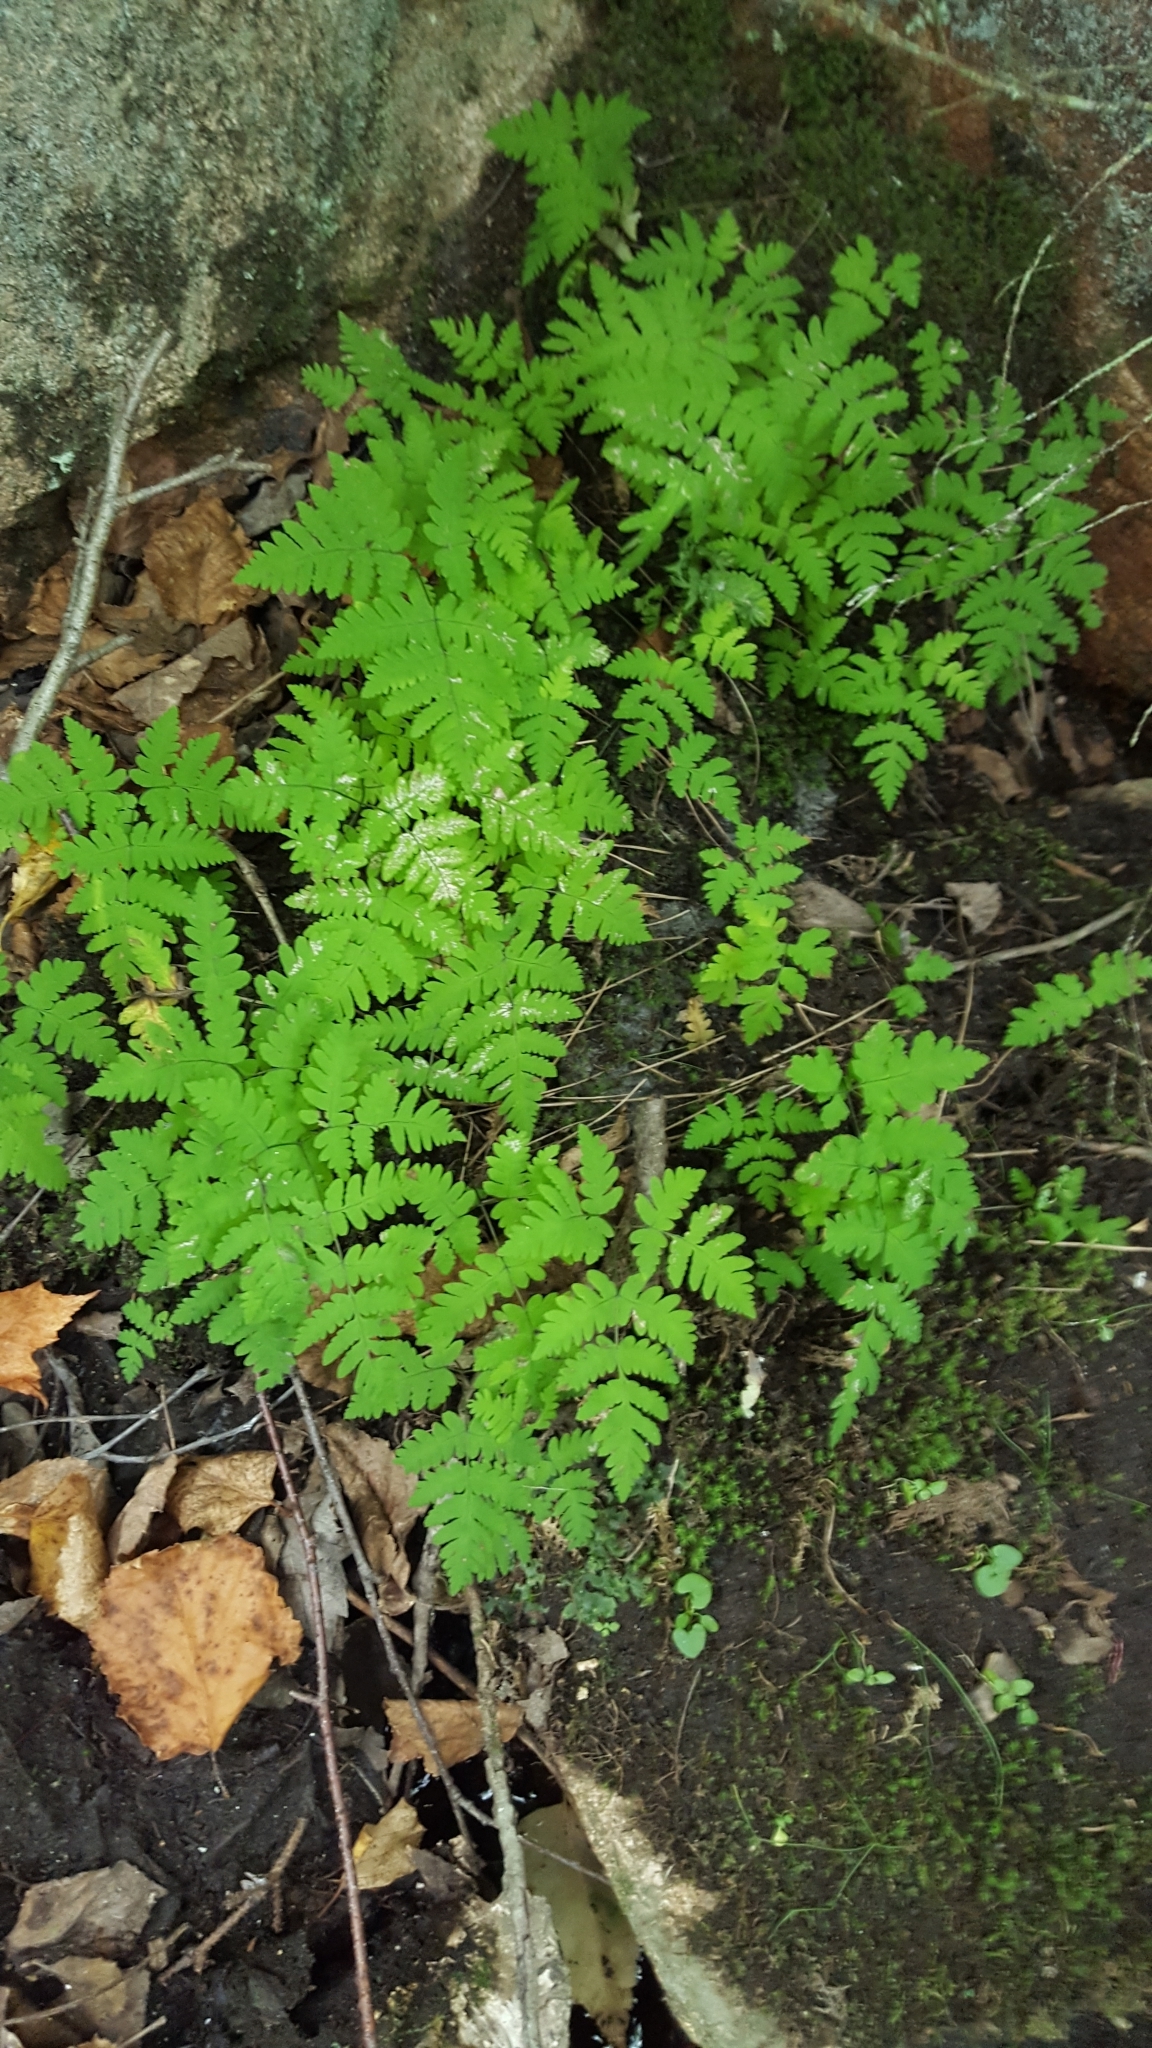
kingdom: Plantae
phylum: Tracheophyta
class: Polypodiopsida
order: Polypodiales
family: Cystopteridaceae
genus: Gymnocarpium
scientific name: Gymnocarpium dryopteris
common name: Oak fern
